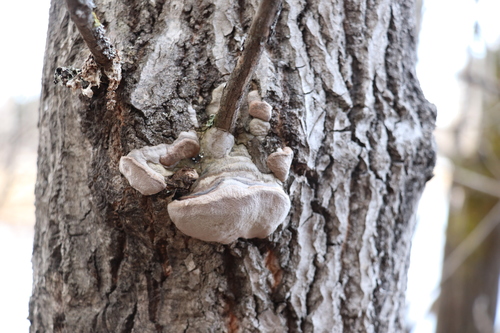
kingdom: Fungi
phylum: Basidiomycota
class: Agaricomycetes
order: Hymenochaetales
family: Hymenochaetaceae
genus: Phellinus
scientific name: Phellinus tremulae
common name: Aspen bracket
